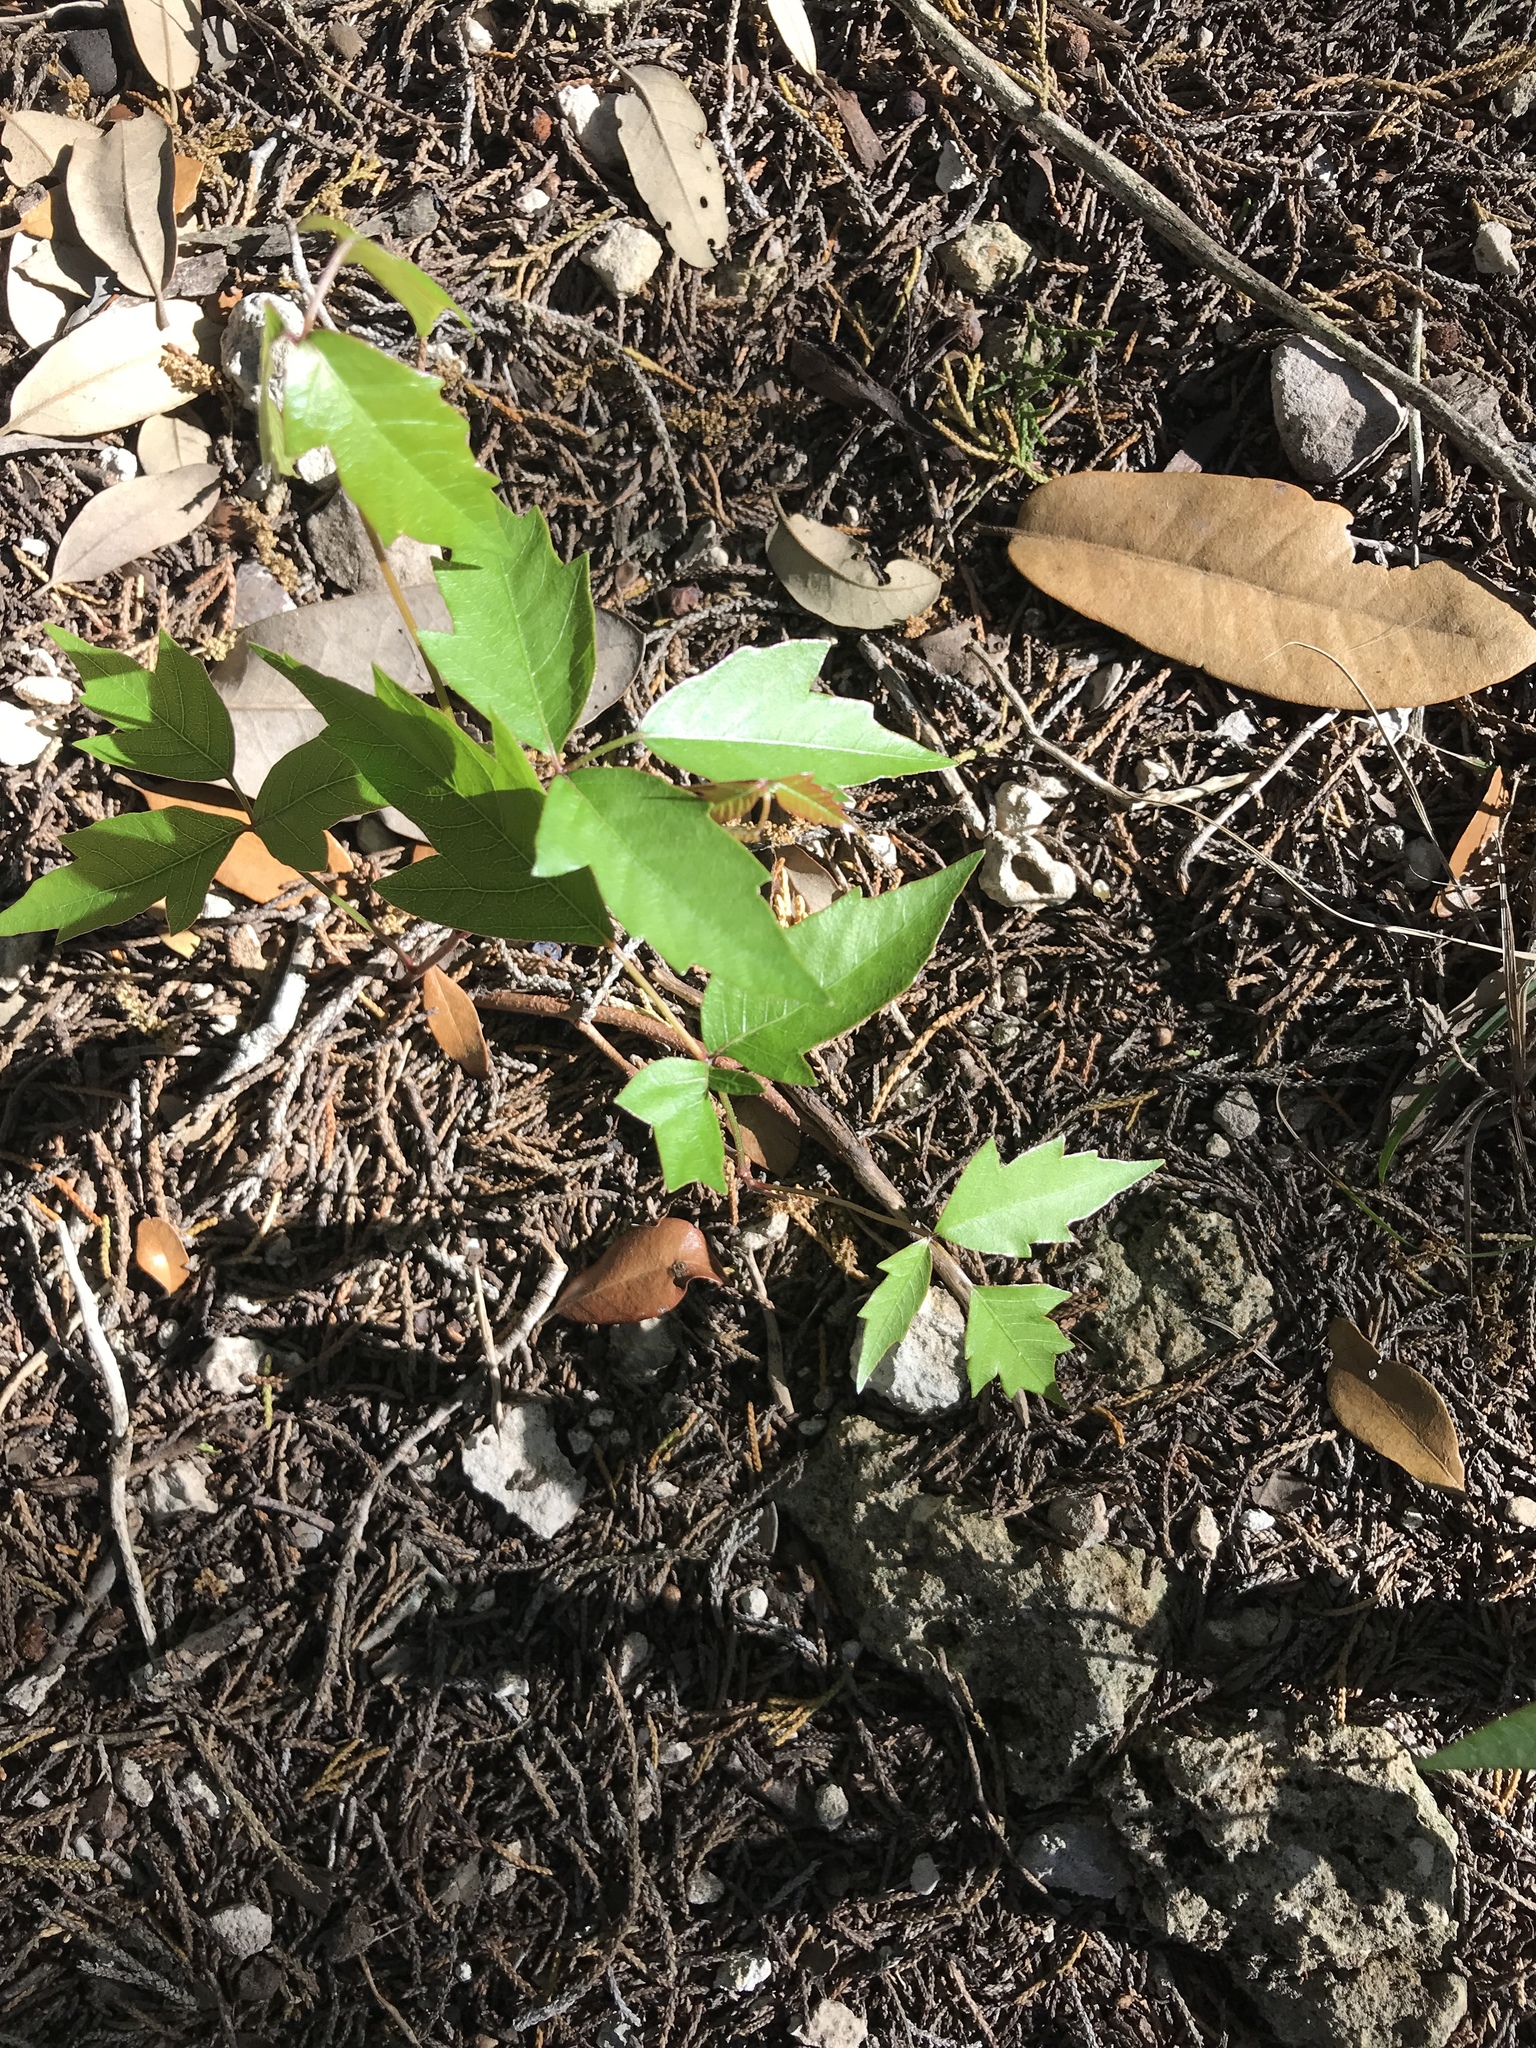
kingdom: Plantae
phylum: Tracheophyta
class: Magnoliopsida
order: Sapindales
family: Anacardiaceae
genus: Toxicodendron
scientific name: Toxicodendron radicans
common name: Poison ivy
